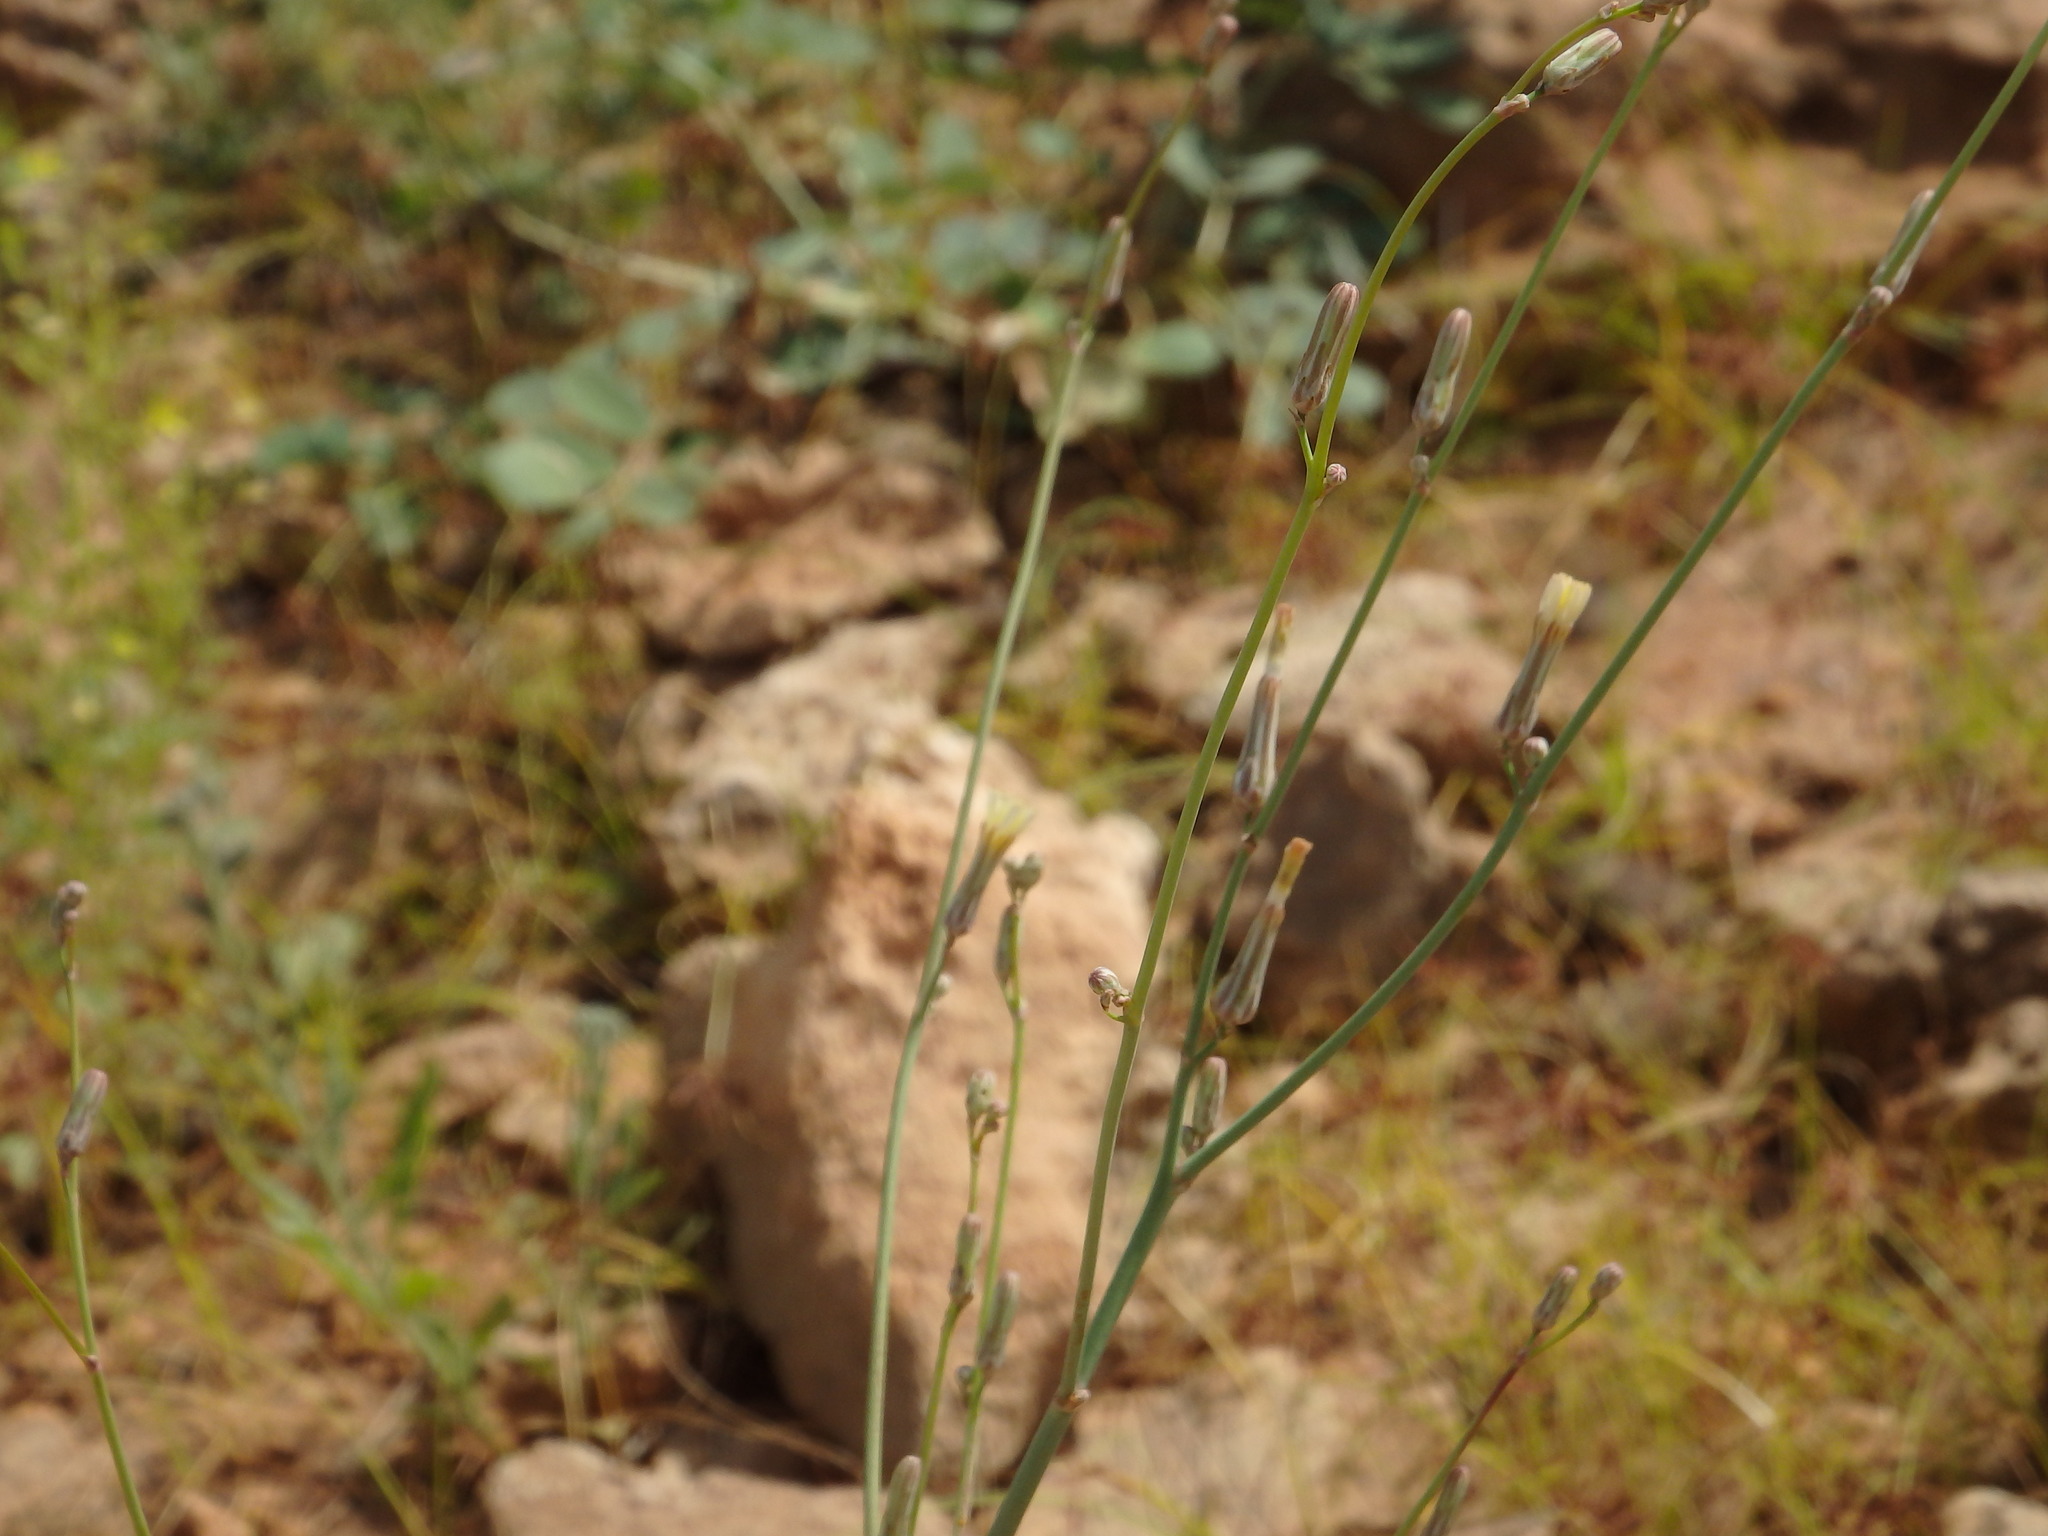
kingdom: Plantae
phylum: Tracheophyta
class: Magnoliopsida
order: Asterales
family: Asteraceae
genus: Launaea
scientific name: Launaea intybacea
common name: Achicoria azul
